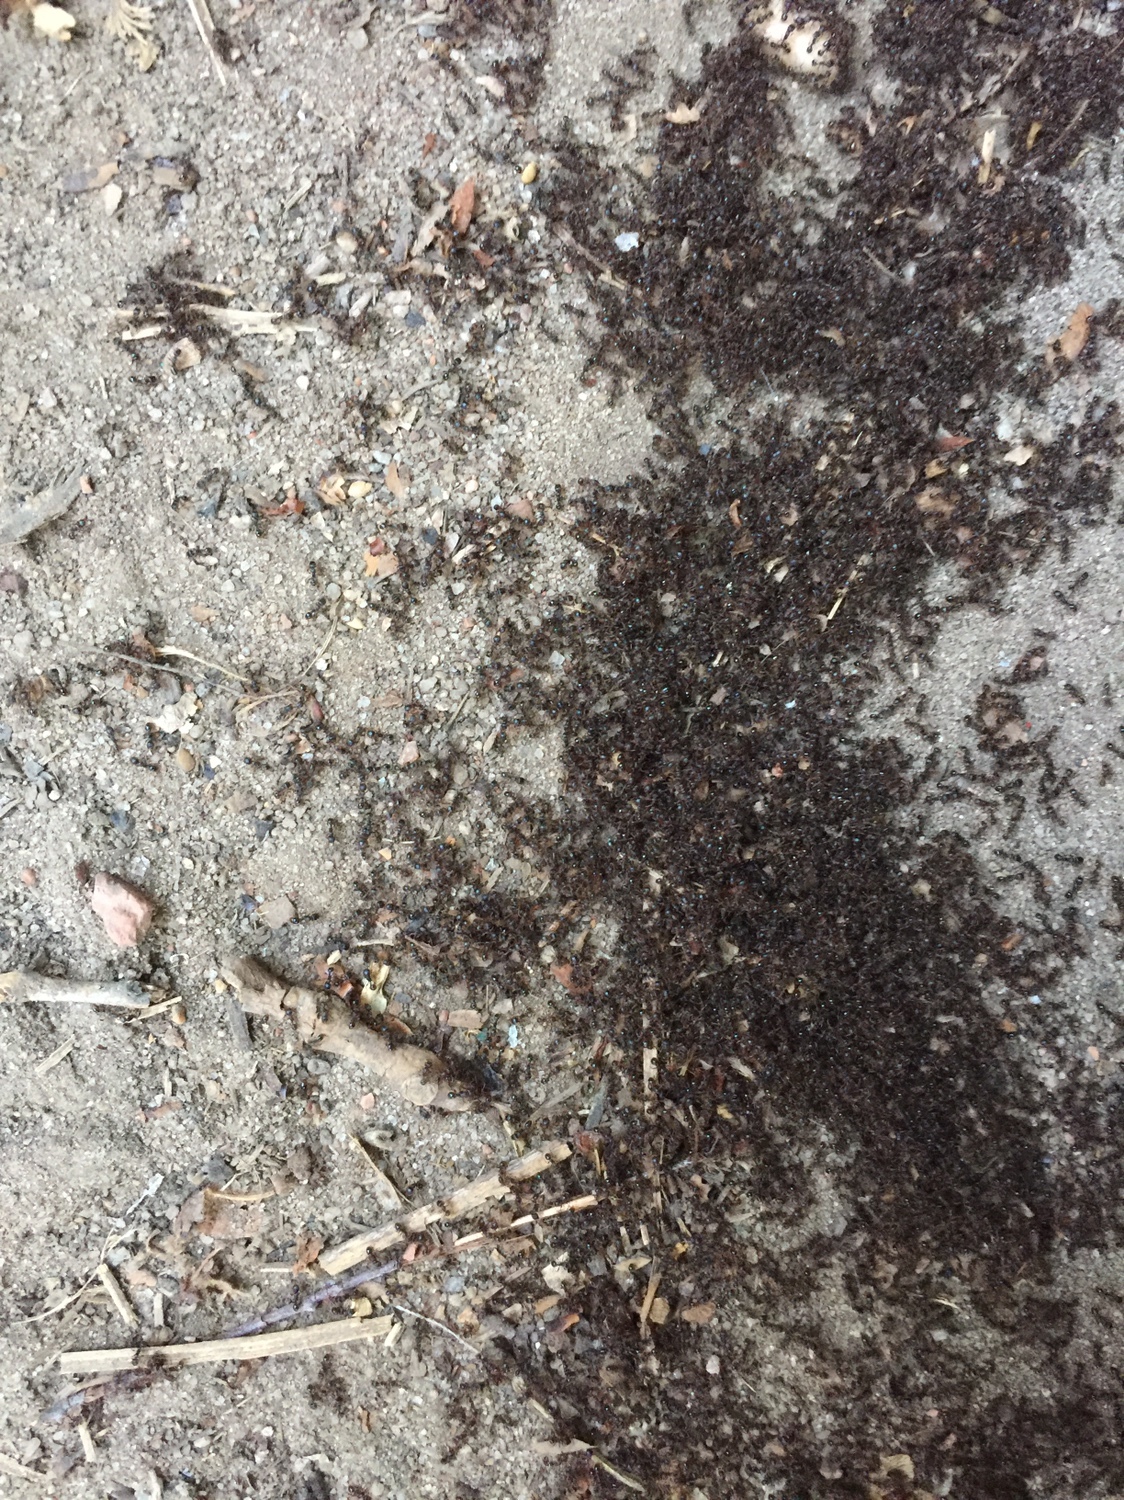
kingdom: Animalia
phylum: Arthropoda
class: Insecta
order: Hymenoptera
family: Formicidae
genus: Tetramorium
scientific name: Tetramorium immigrans
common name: Pavement ant
